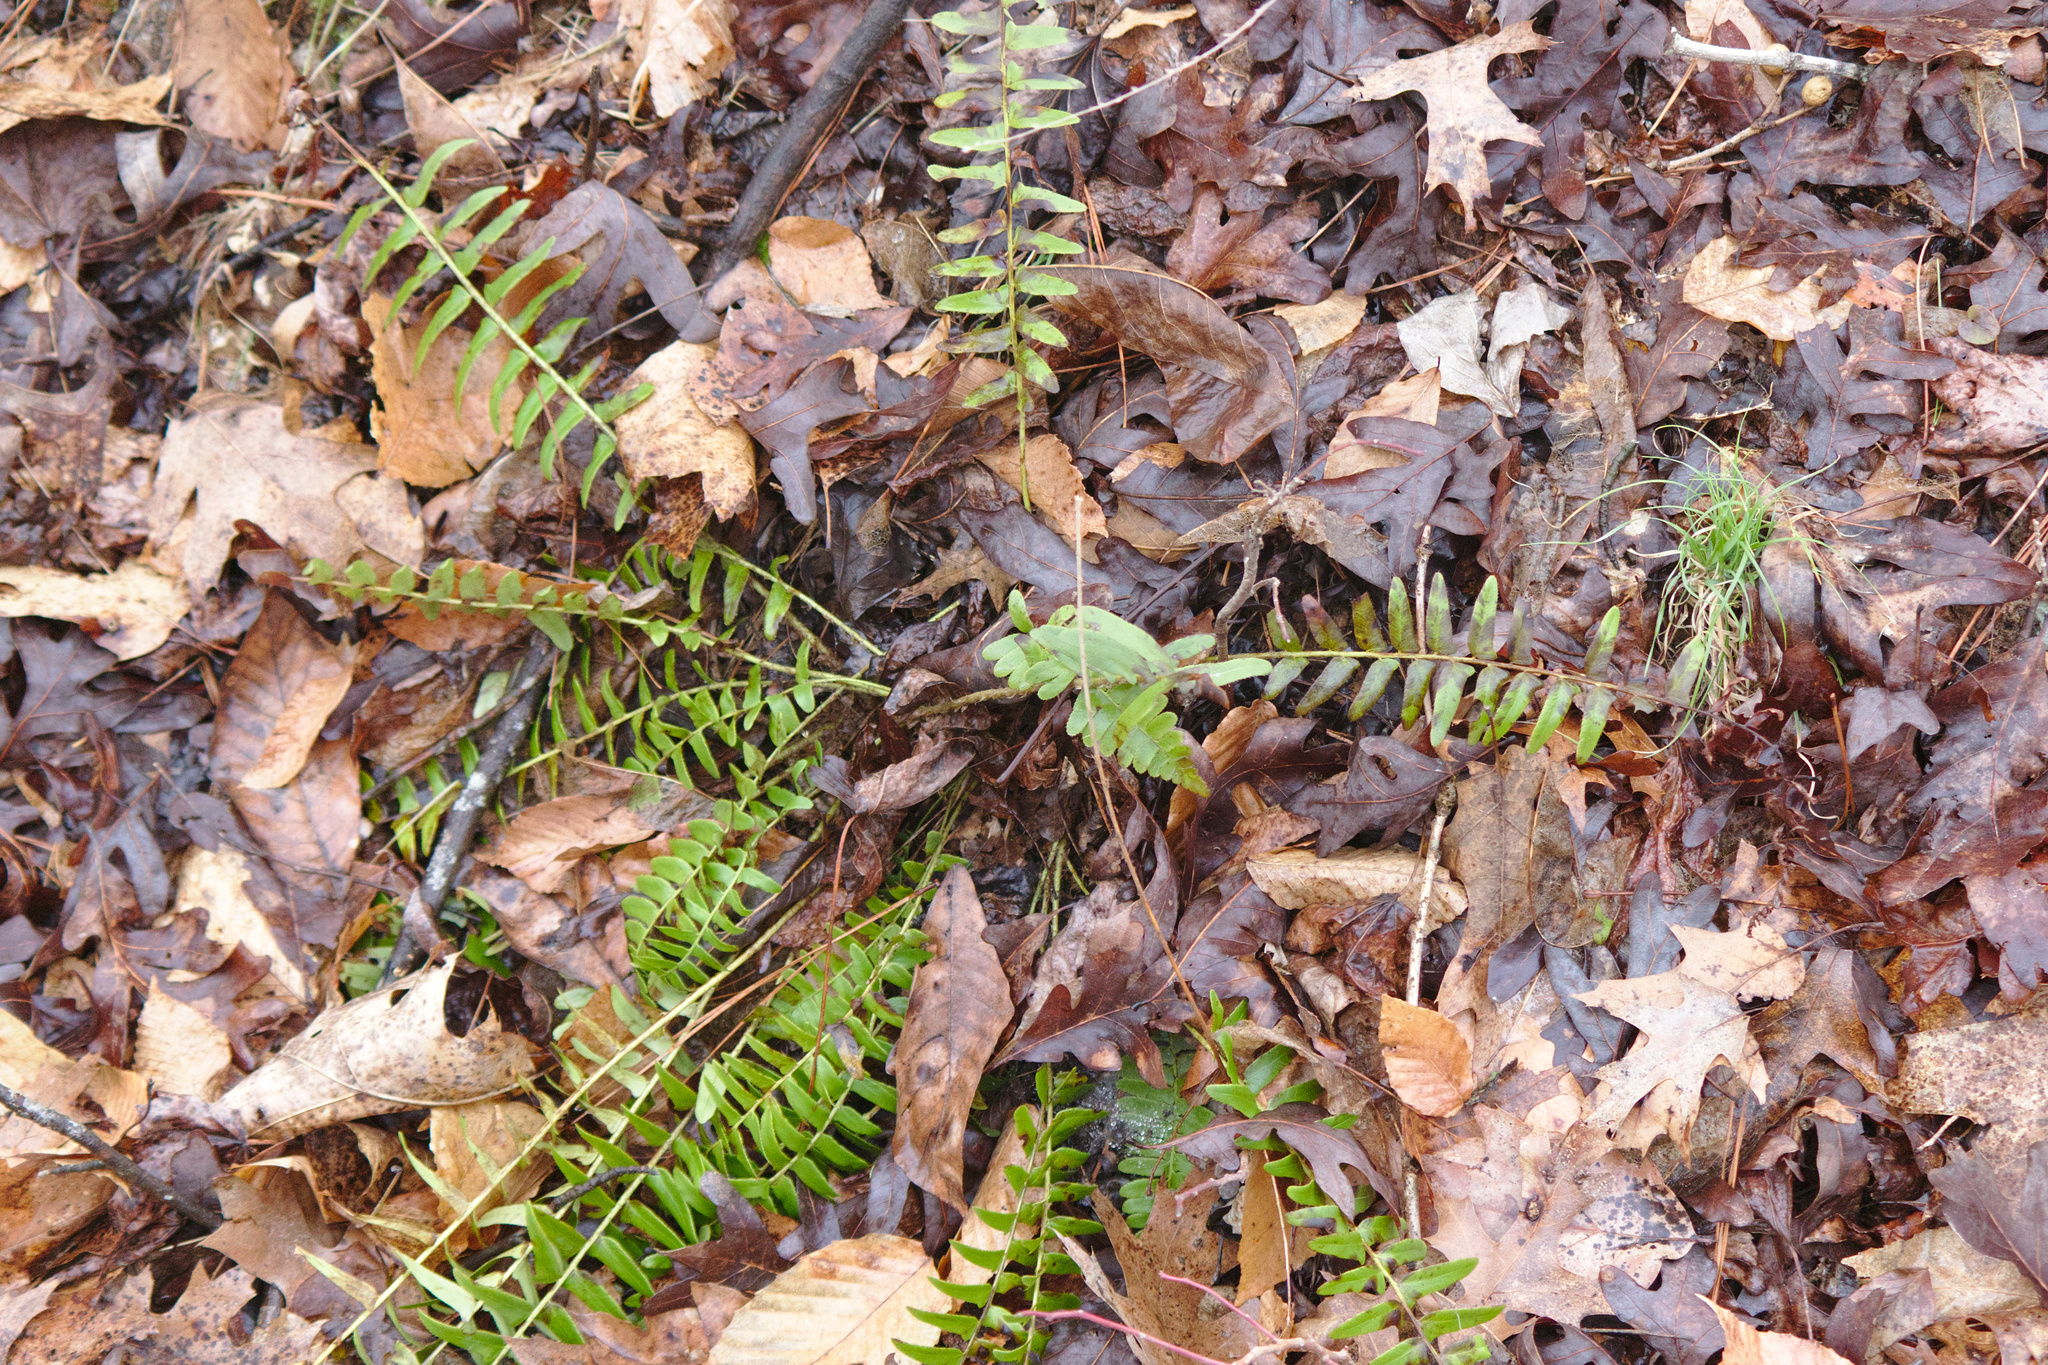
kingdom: Plantae
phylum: Tracheophyta
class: Polypodiopsida
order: Polypodiales
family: Dryopteridaceae
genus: Polystichum
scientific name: Polystichum acrostichoides
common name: Christmas fern
